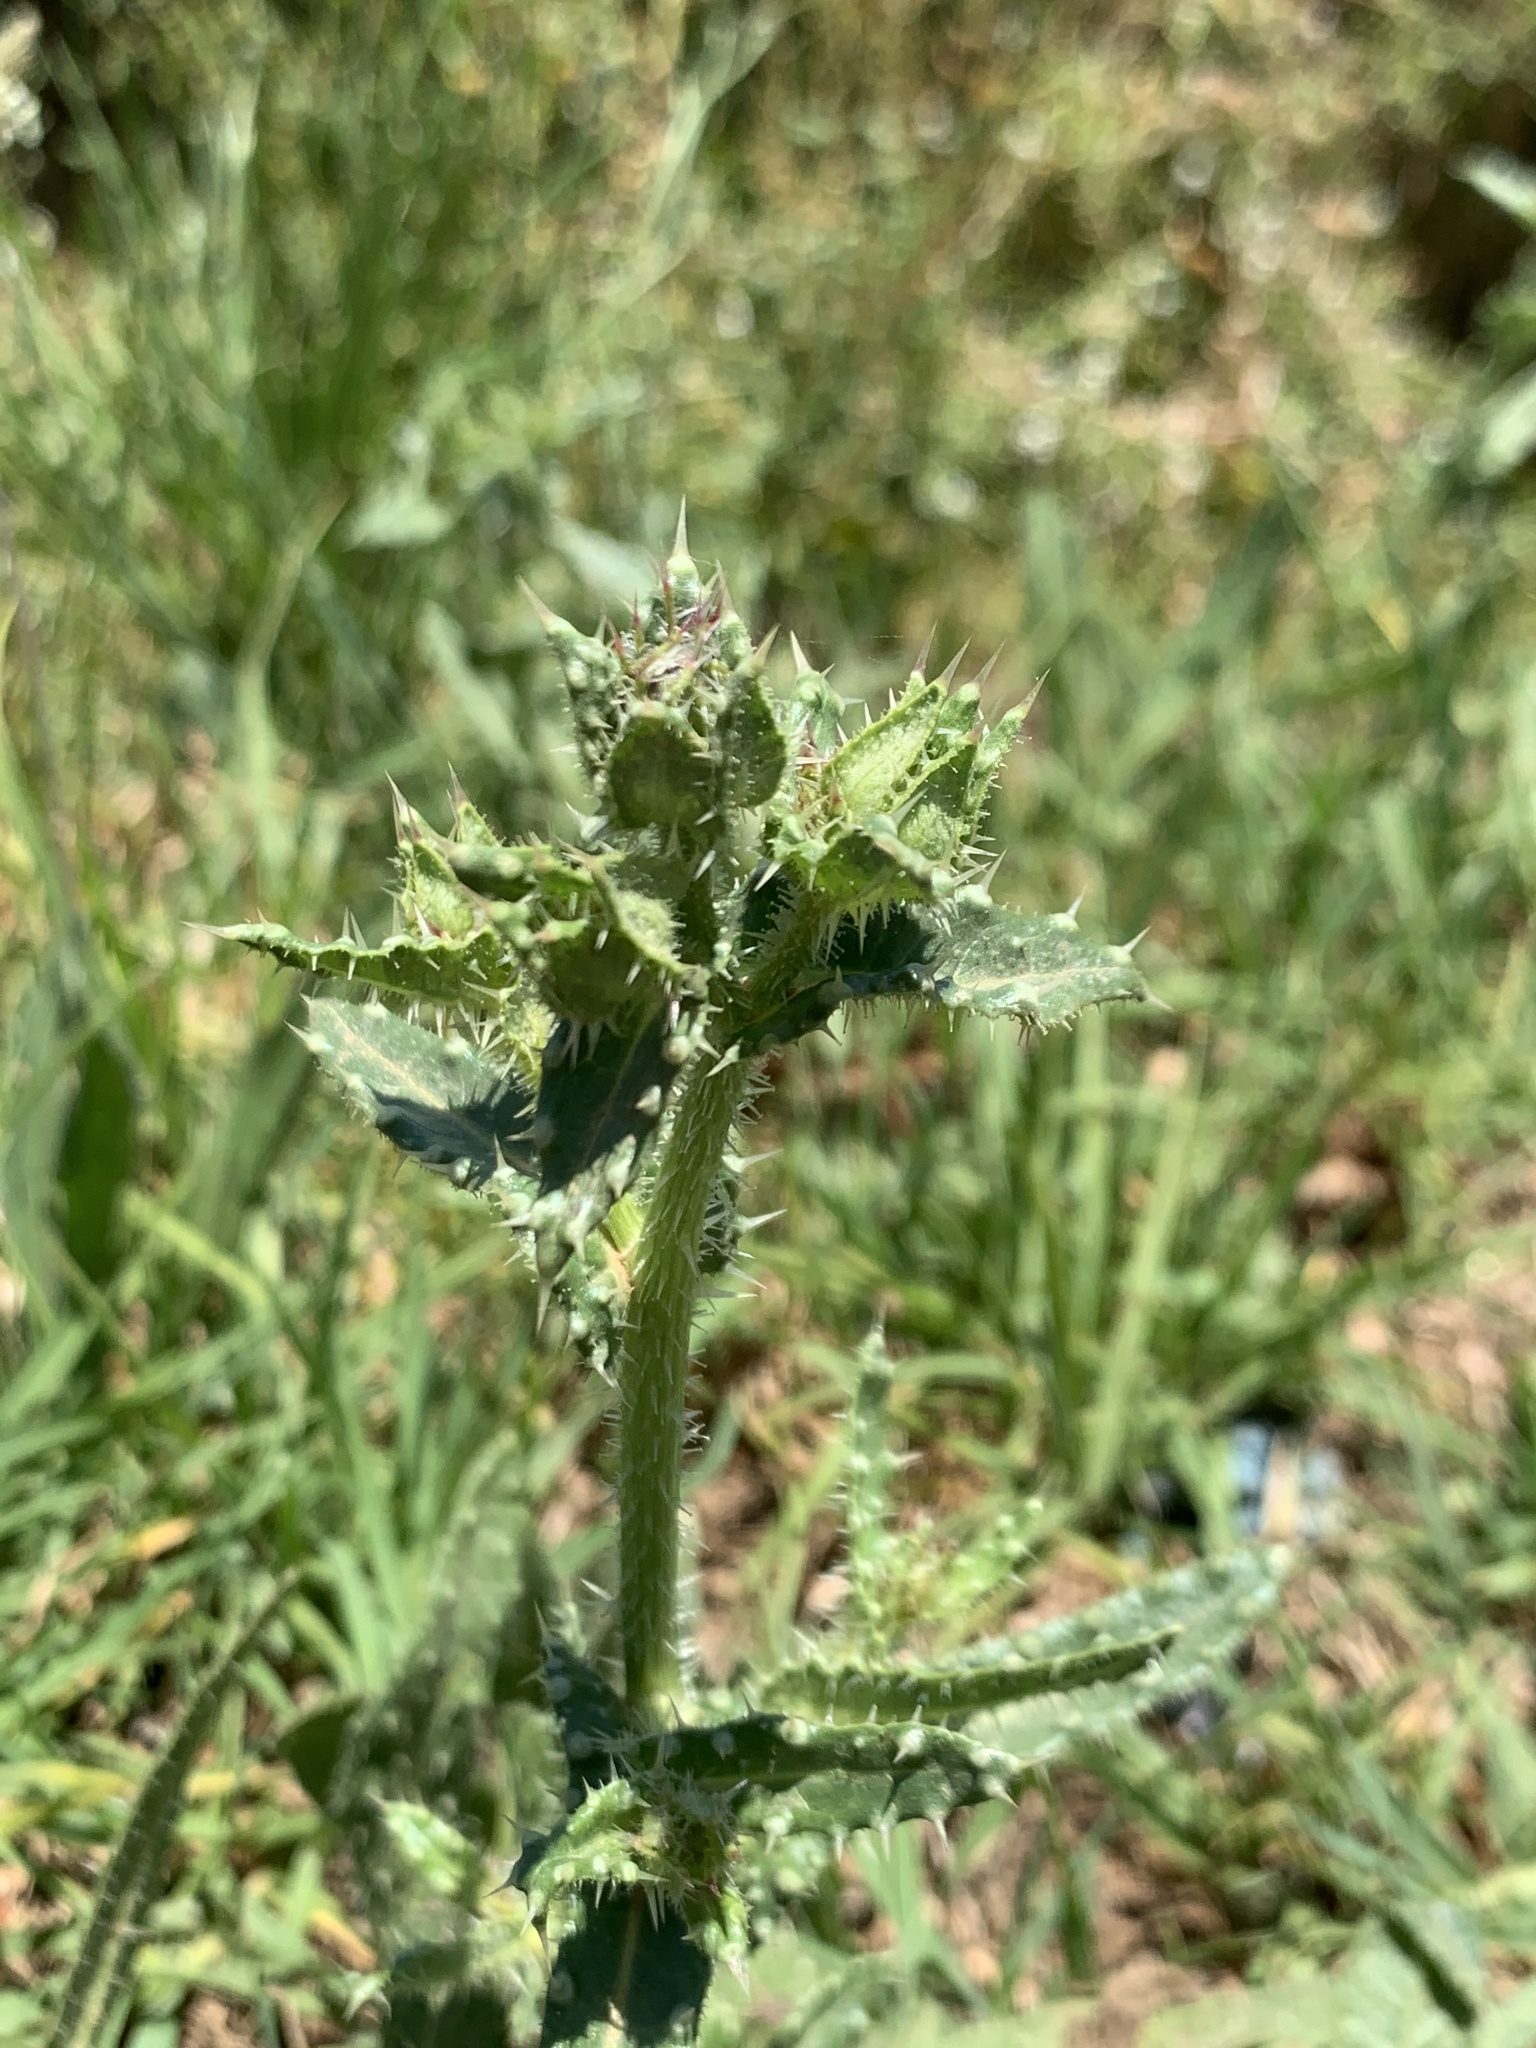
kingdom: Plantae
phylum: Tracheophyta
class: Magnoliopsida
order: Asterales
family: Asteraceae
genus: Helminthotheca
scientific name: Helminthotheca echioides
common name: Ox-tongue
